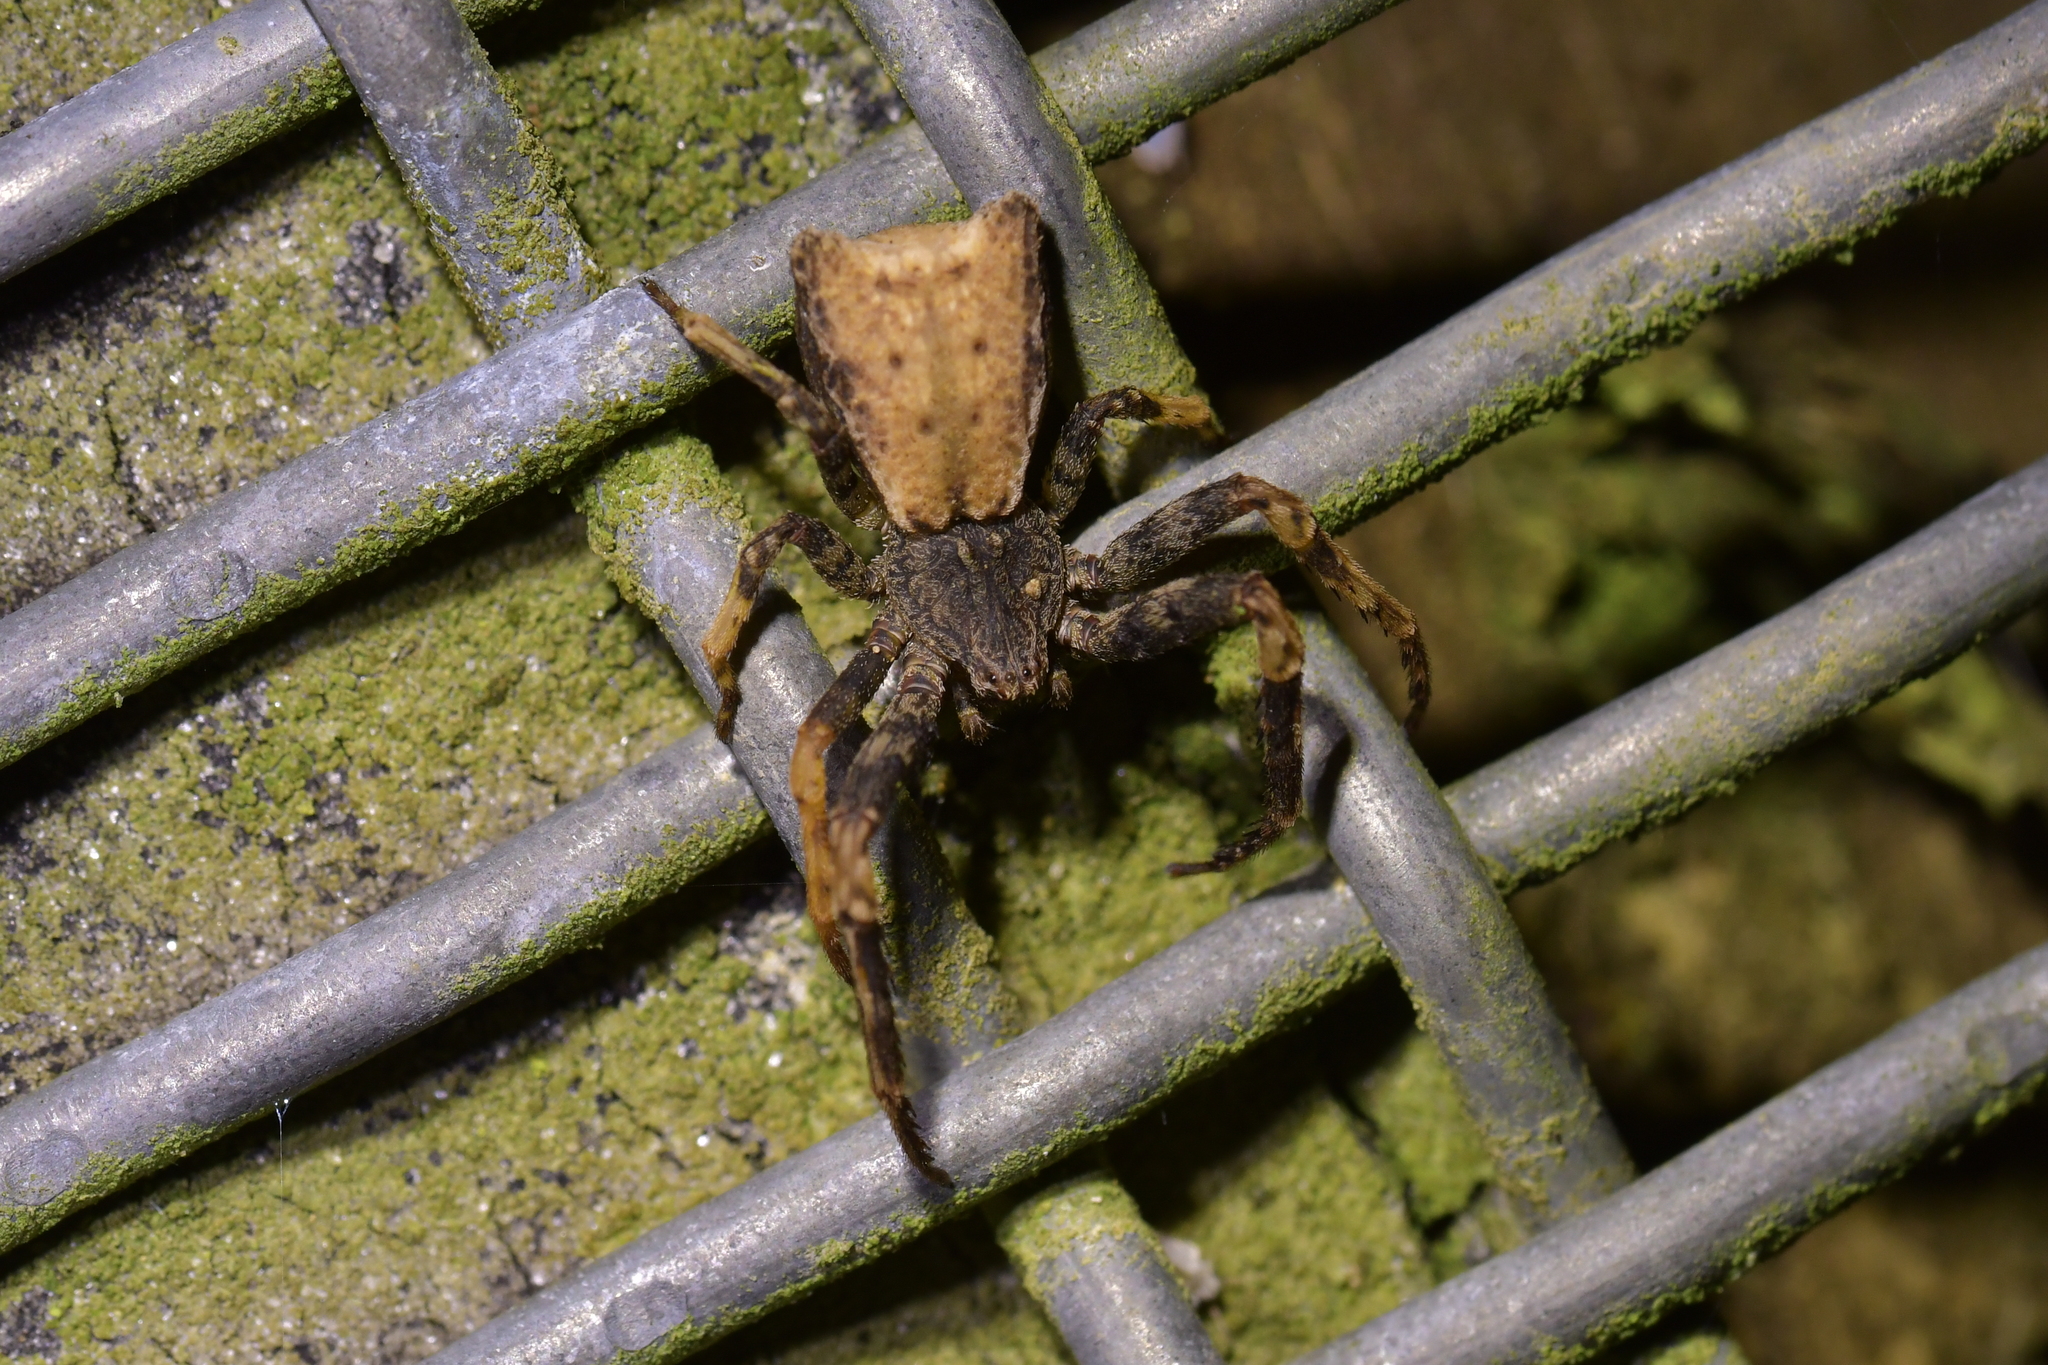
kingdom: Animalia
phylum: Arthropoda
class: Arachnida
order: Araneae
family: Thomisidae
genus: Sidymella
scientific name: Sidymella angularis
